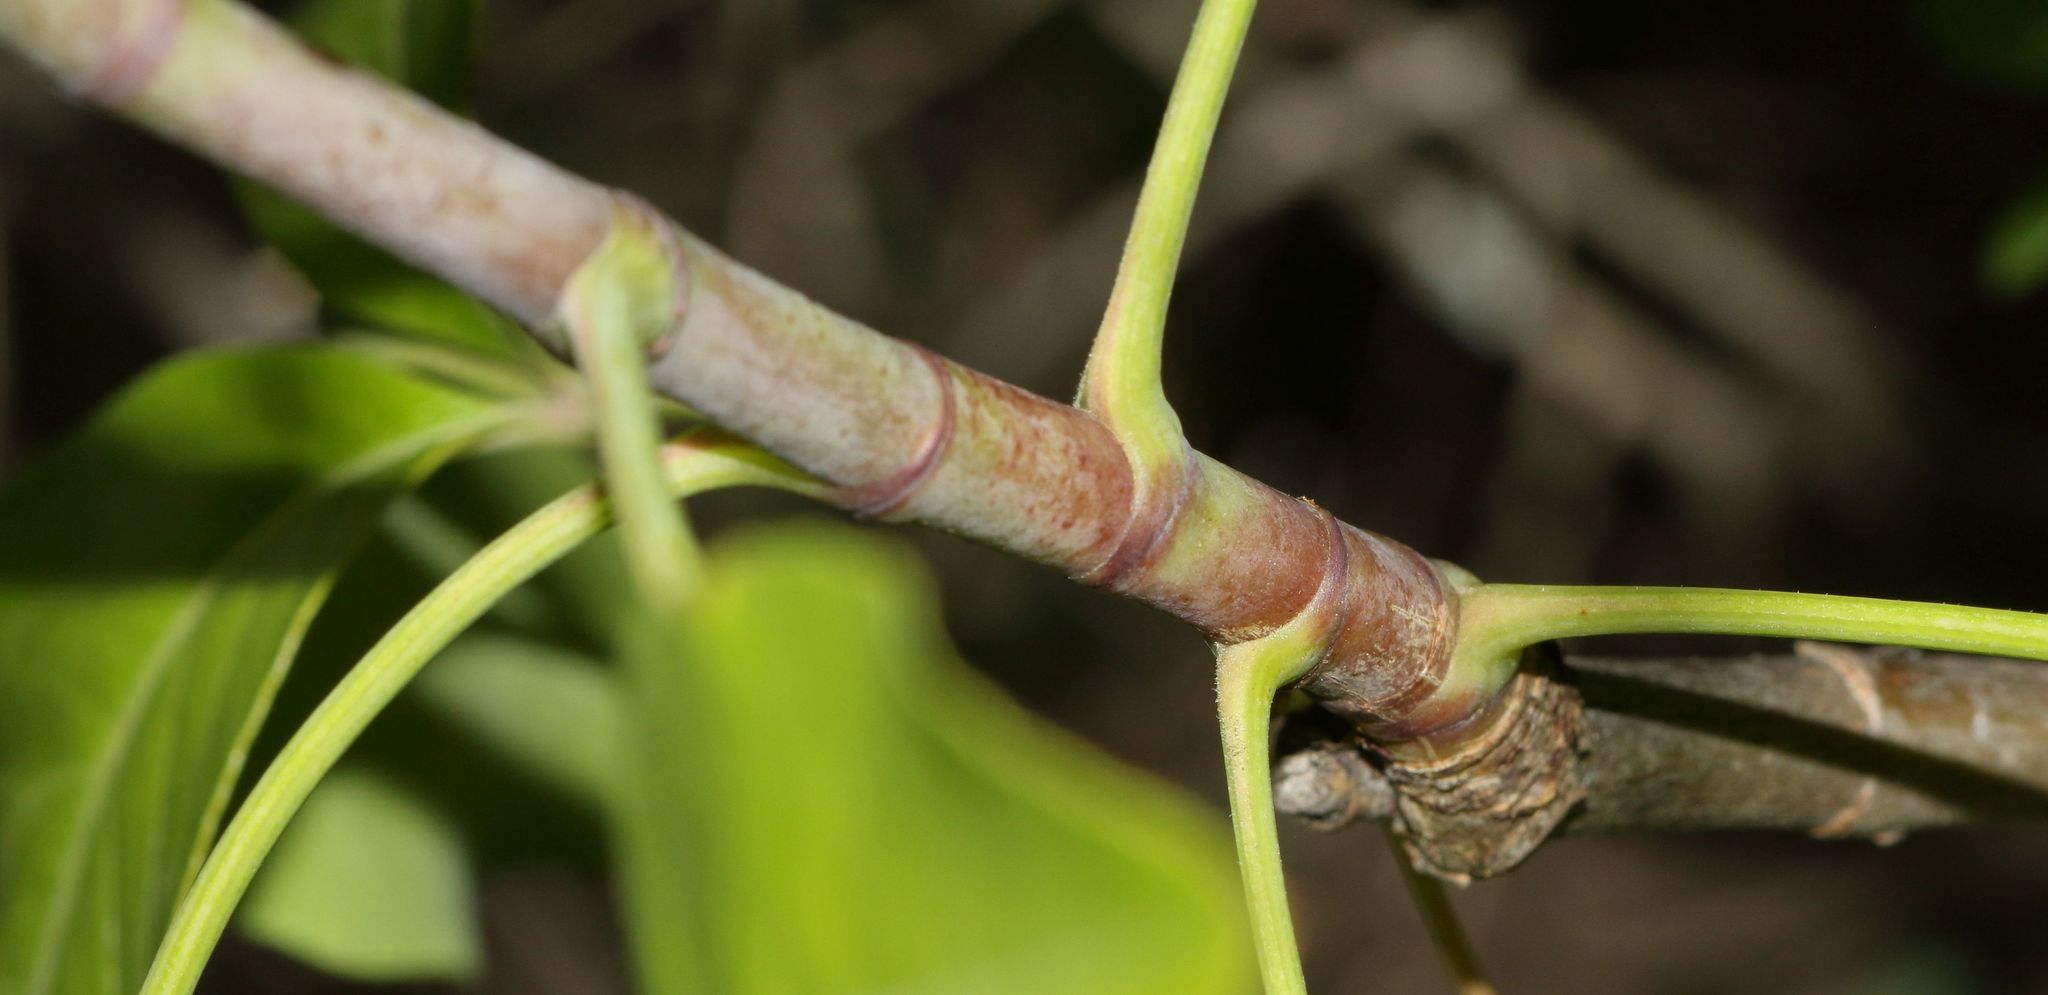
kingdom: Plantae
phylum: Tracheophyta
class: Magnoliopsida
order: Apiales
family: Apiaceae
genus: Heteromorpha
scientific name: Heteromorpha arborescens
